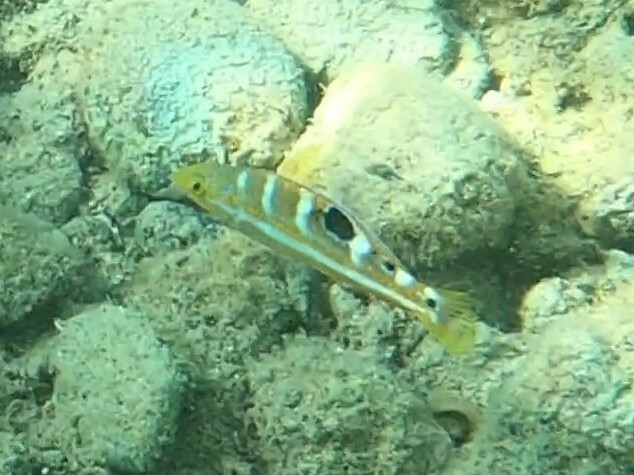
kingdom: Animalia
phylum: Chordata
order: Perciformes
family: Labridae
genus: Halichoeres
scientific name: Halichoeres radiatus
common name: Puddingwife
